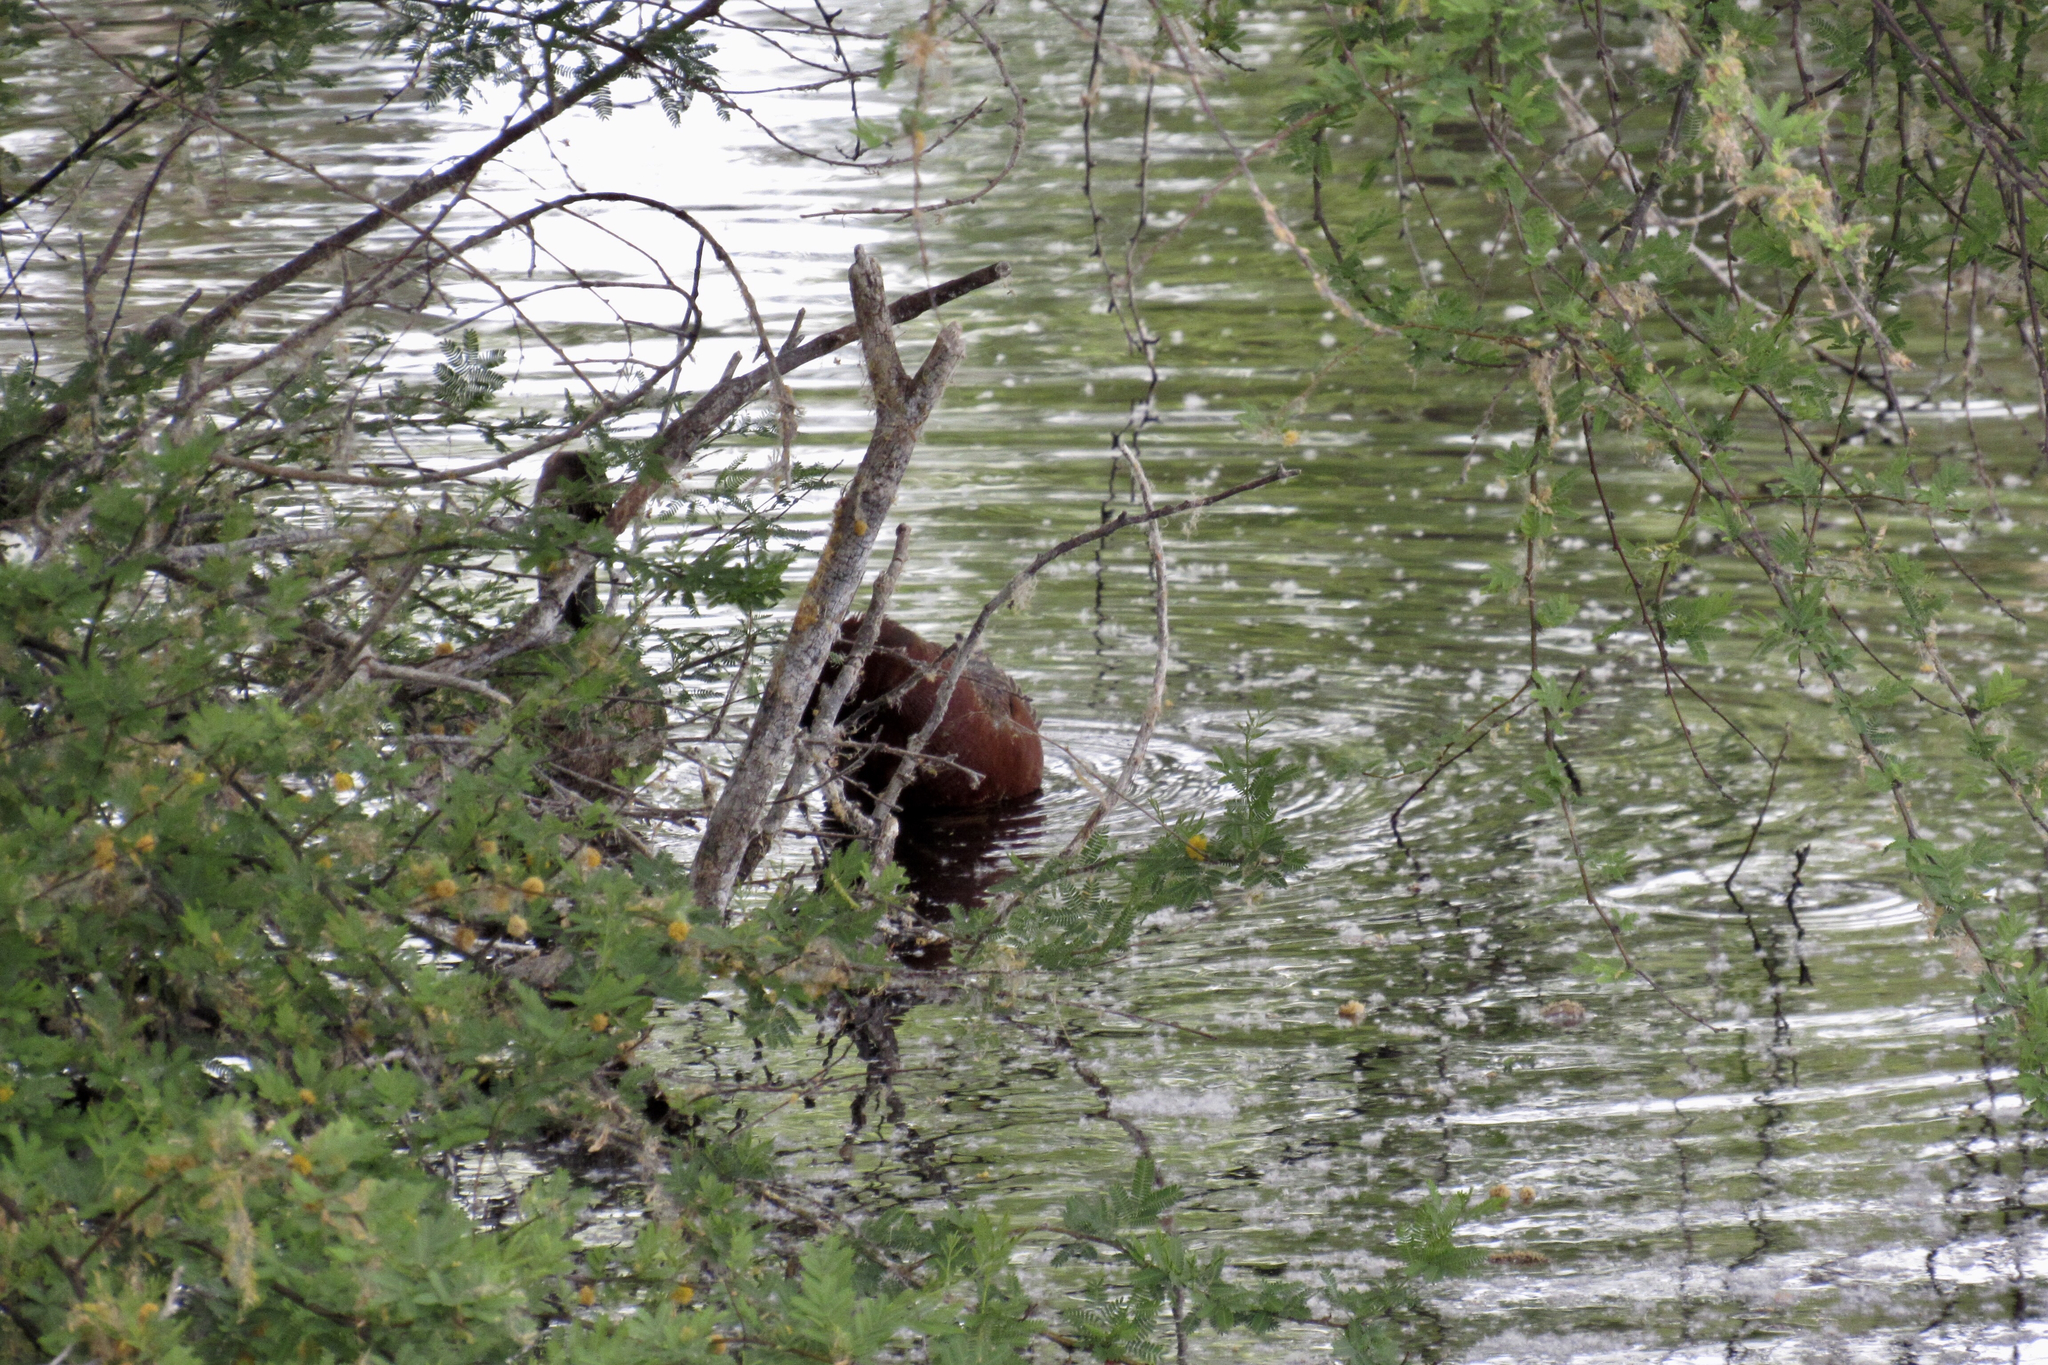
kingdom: Animalia
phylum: Chordata
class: Aves
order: Anseriformes
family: Anatidae
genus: Spatula
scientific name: Spatula cyanoptera
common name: Cinnamon teal
